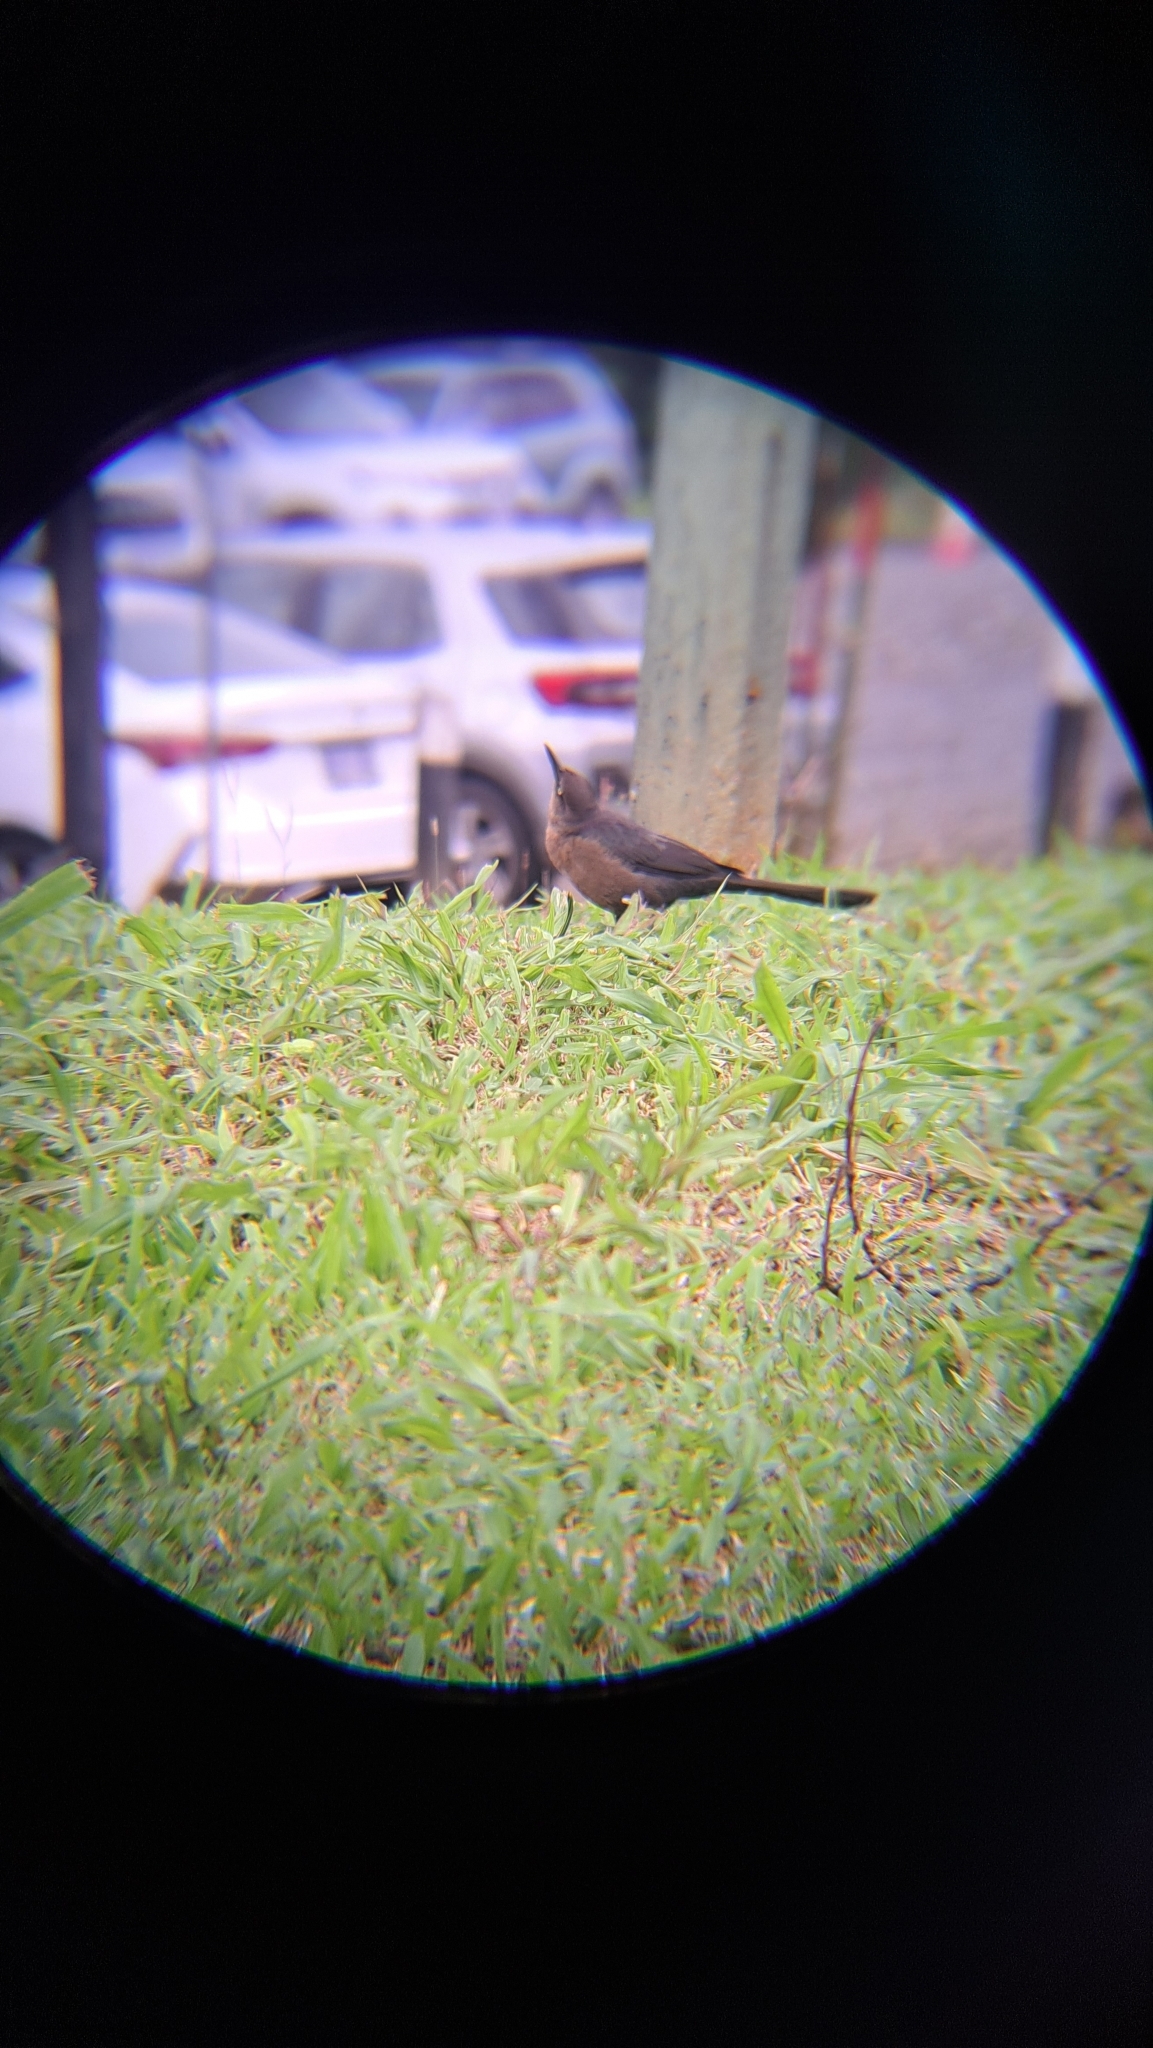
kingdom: Animalia
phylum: Chordata
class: Aves
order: Passeriformes
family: Icteridae
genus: Quiscalus
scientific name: Quiscalus mexicanus
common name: Great-tailed grackle
